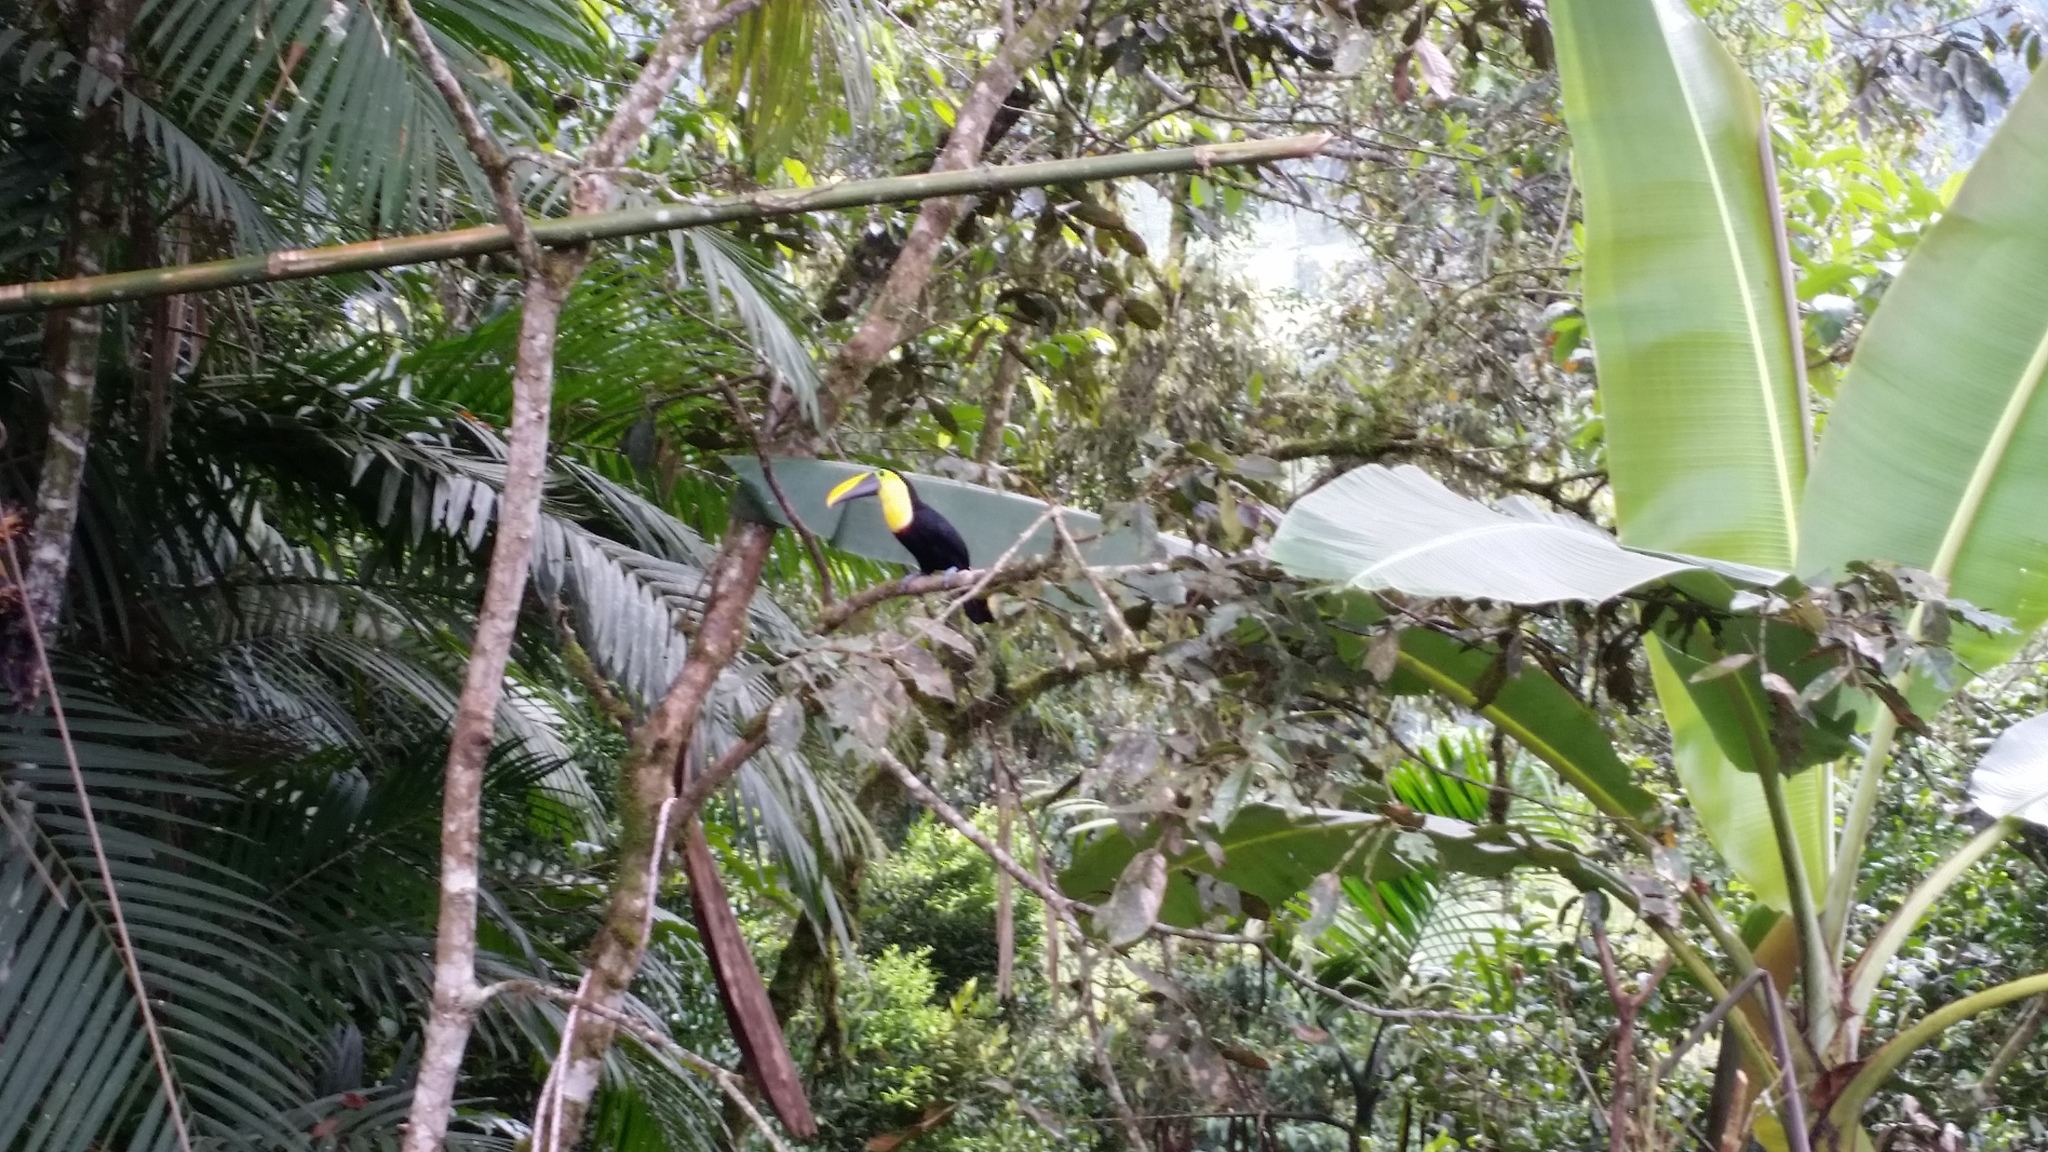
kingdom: Animalia
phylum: Chordata
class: Aves
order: Piciformes
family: Ramphastidae
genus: Ramphastos
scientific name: Ramphastos ambiguus
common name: Yellow-throated toucan
